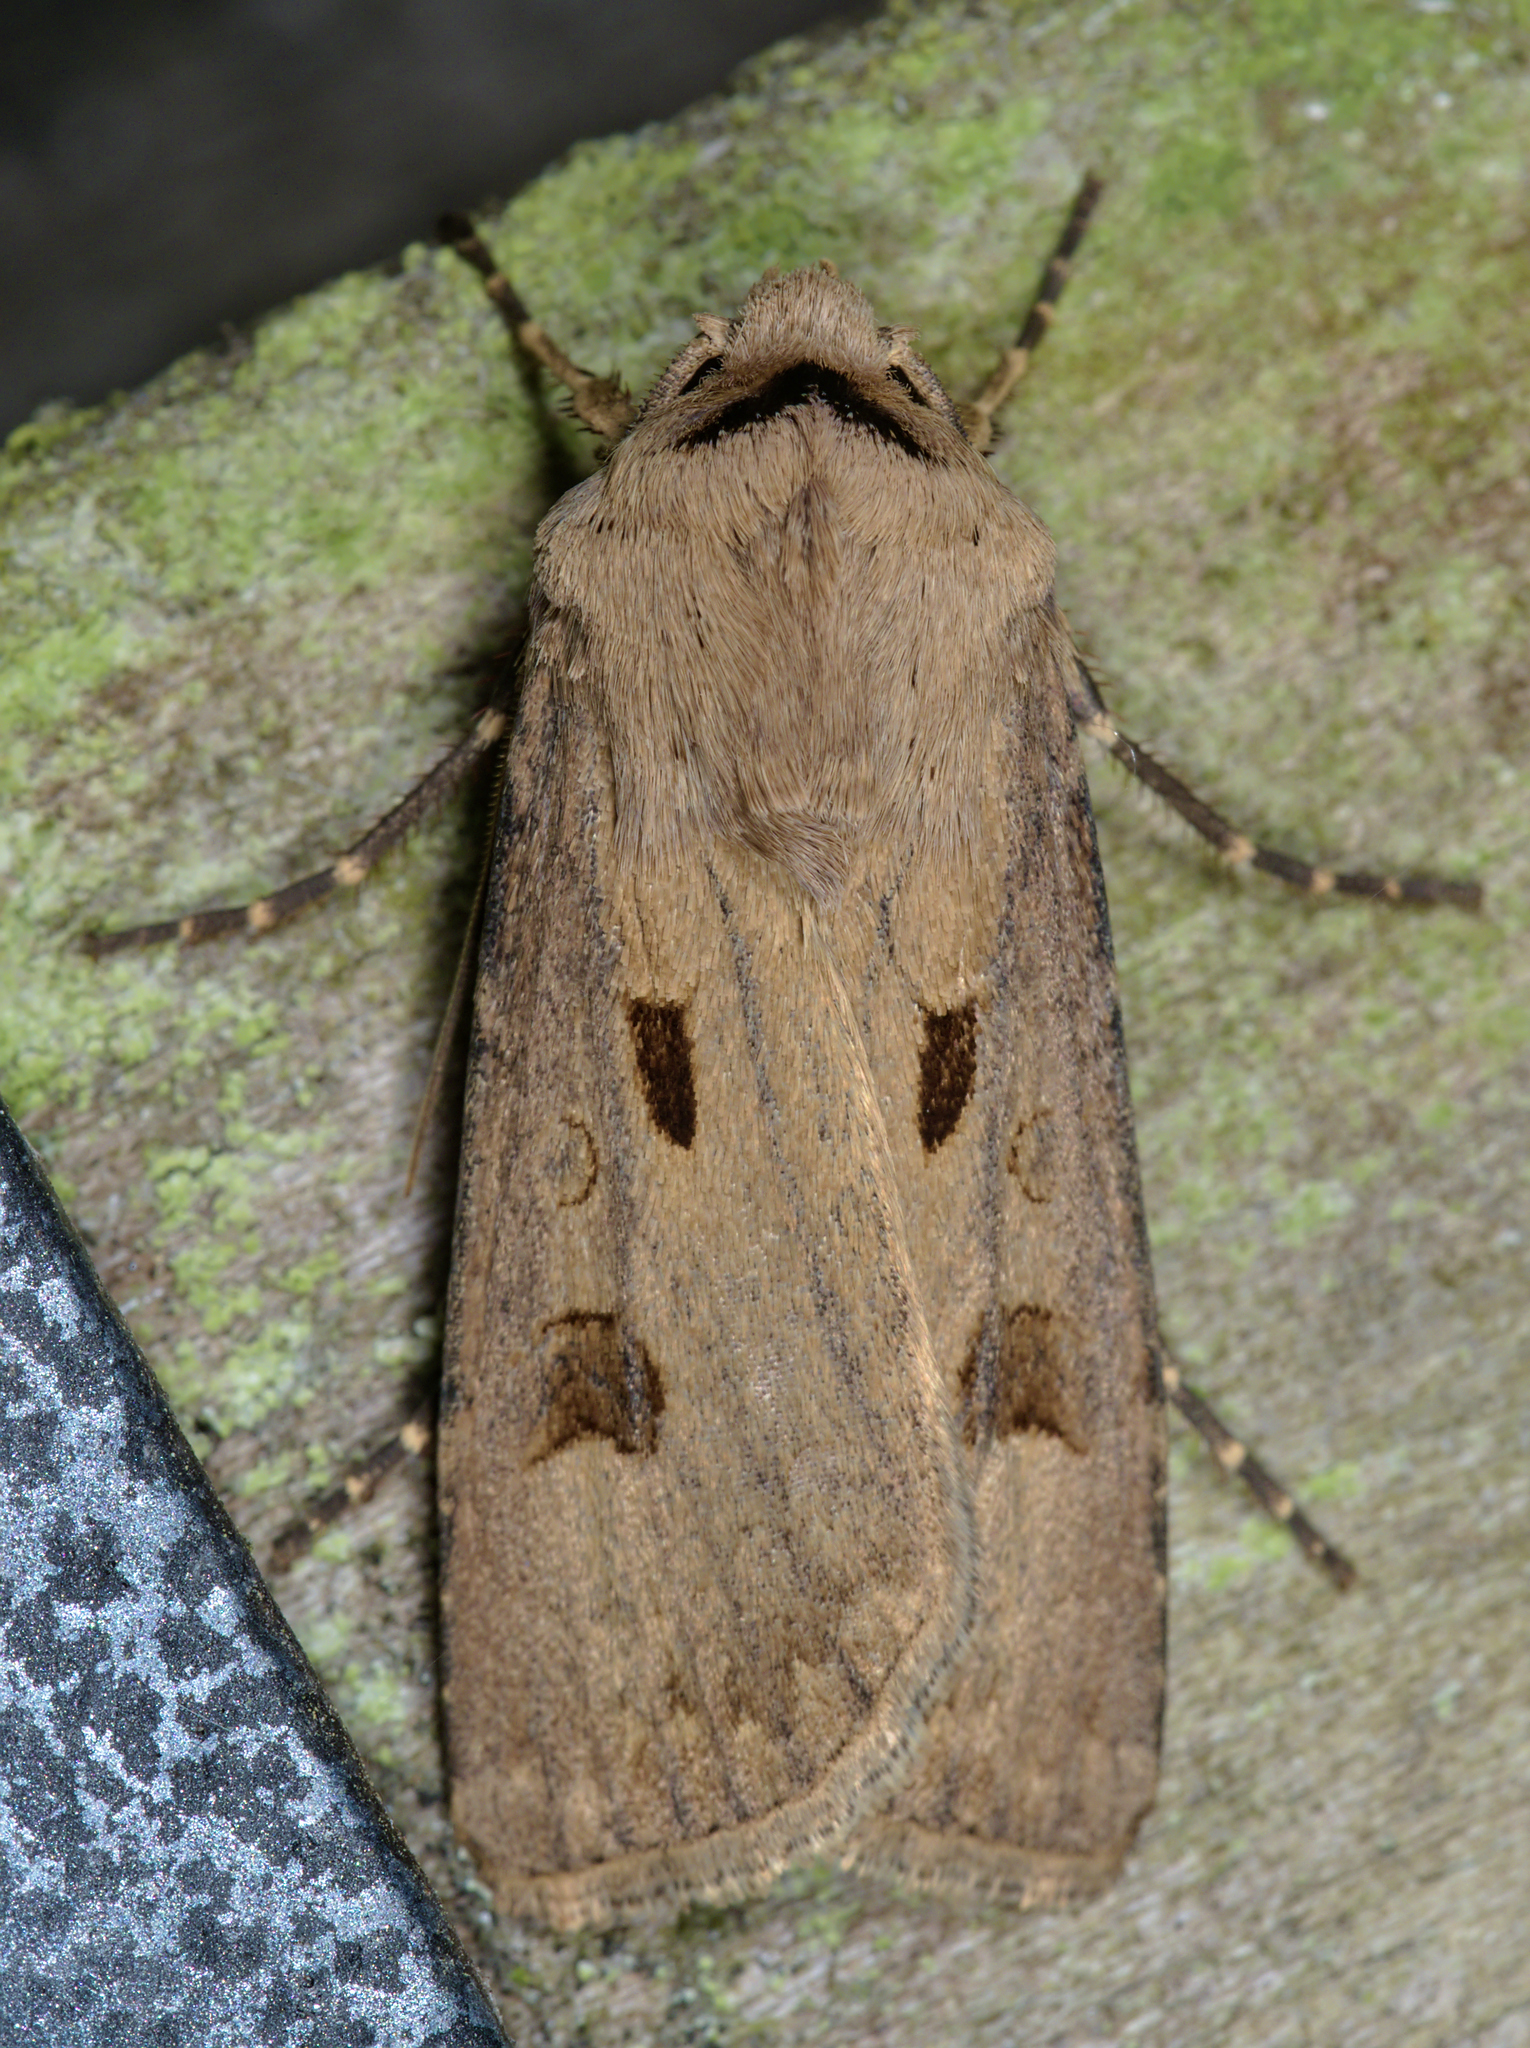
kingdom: Animalia
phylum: Arthropoda
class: Insecta
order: Lepidoptera
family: Noctuidae
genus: Agrotis
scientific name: Agrotis exclamationis
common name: Heart and dart
